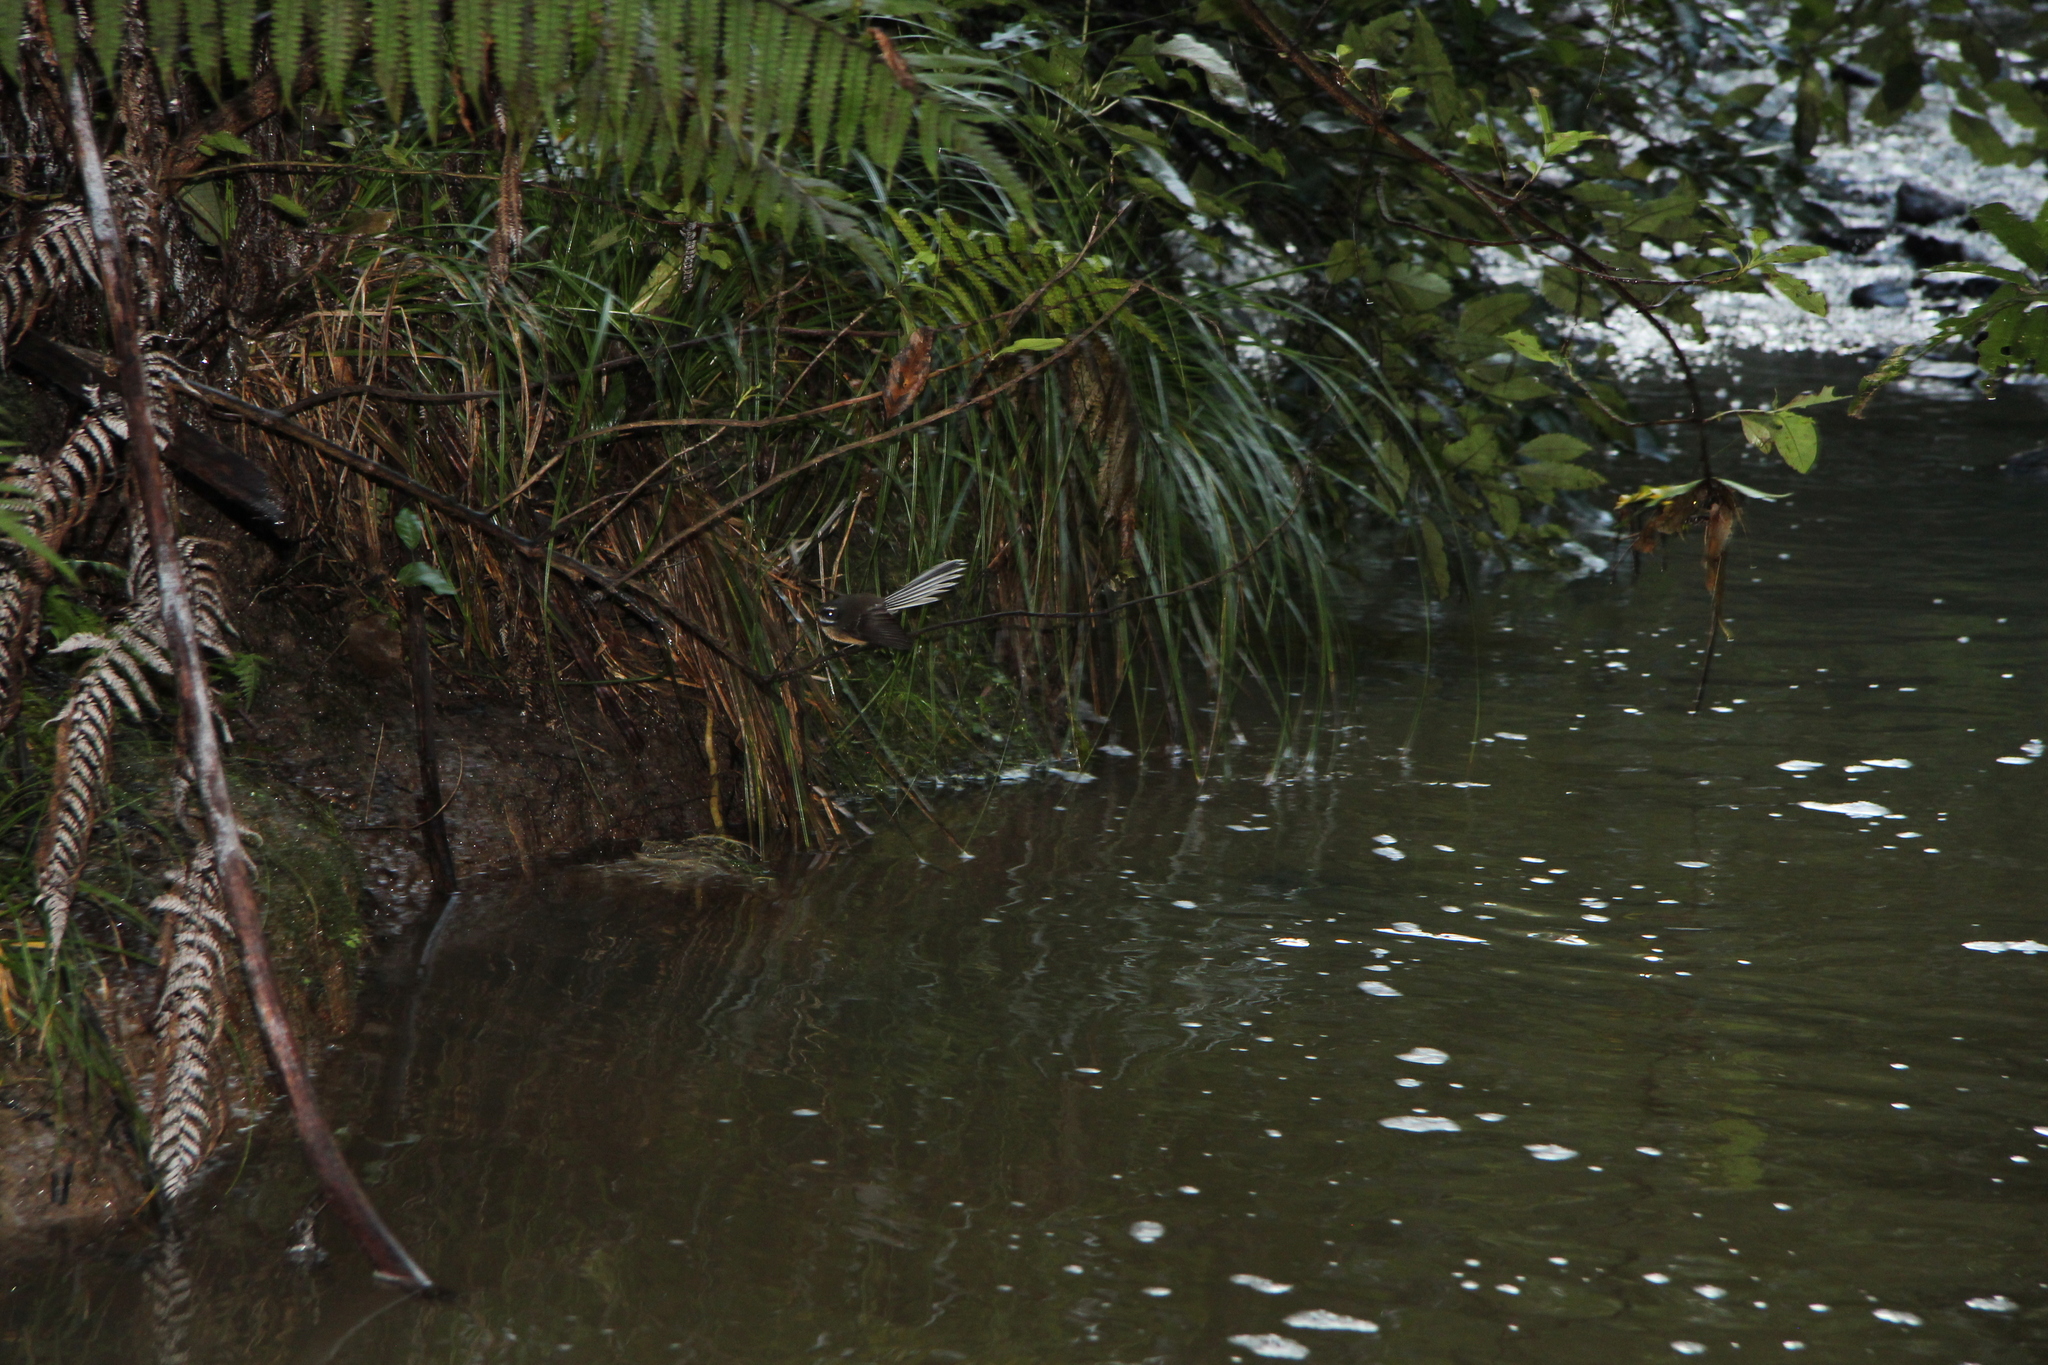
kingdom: Animalia
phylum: Chordata
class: Aves
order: Passeriformes
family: Rhipiduridae
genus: Rhipidura
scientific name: Rhipidura fuliginosa
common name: New zealand fantail
